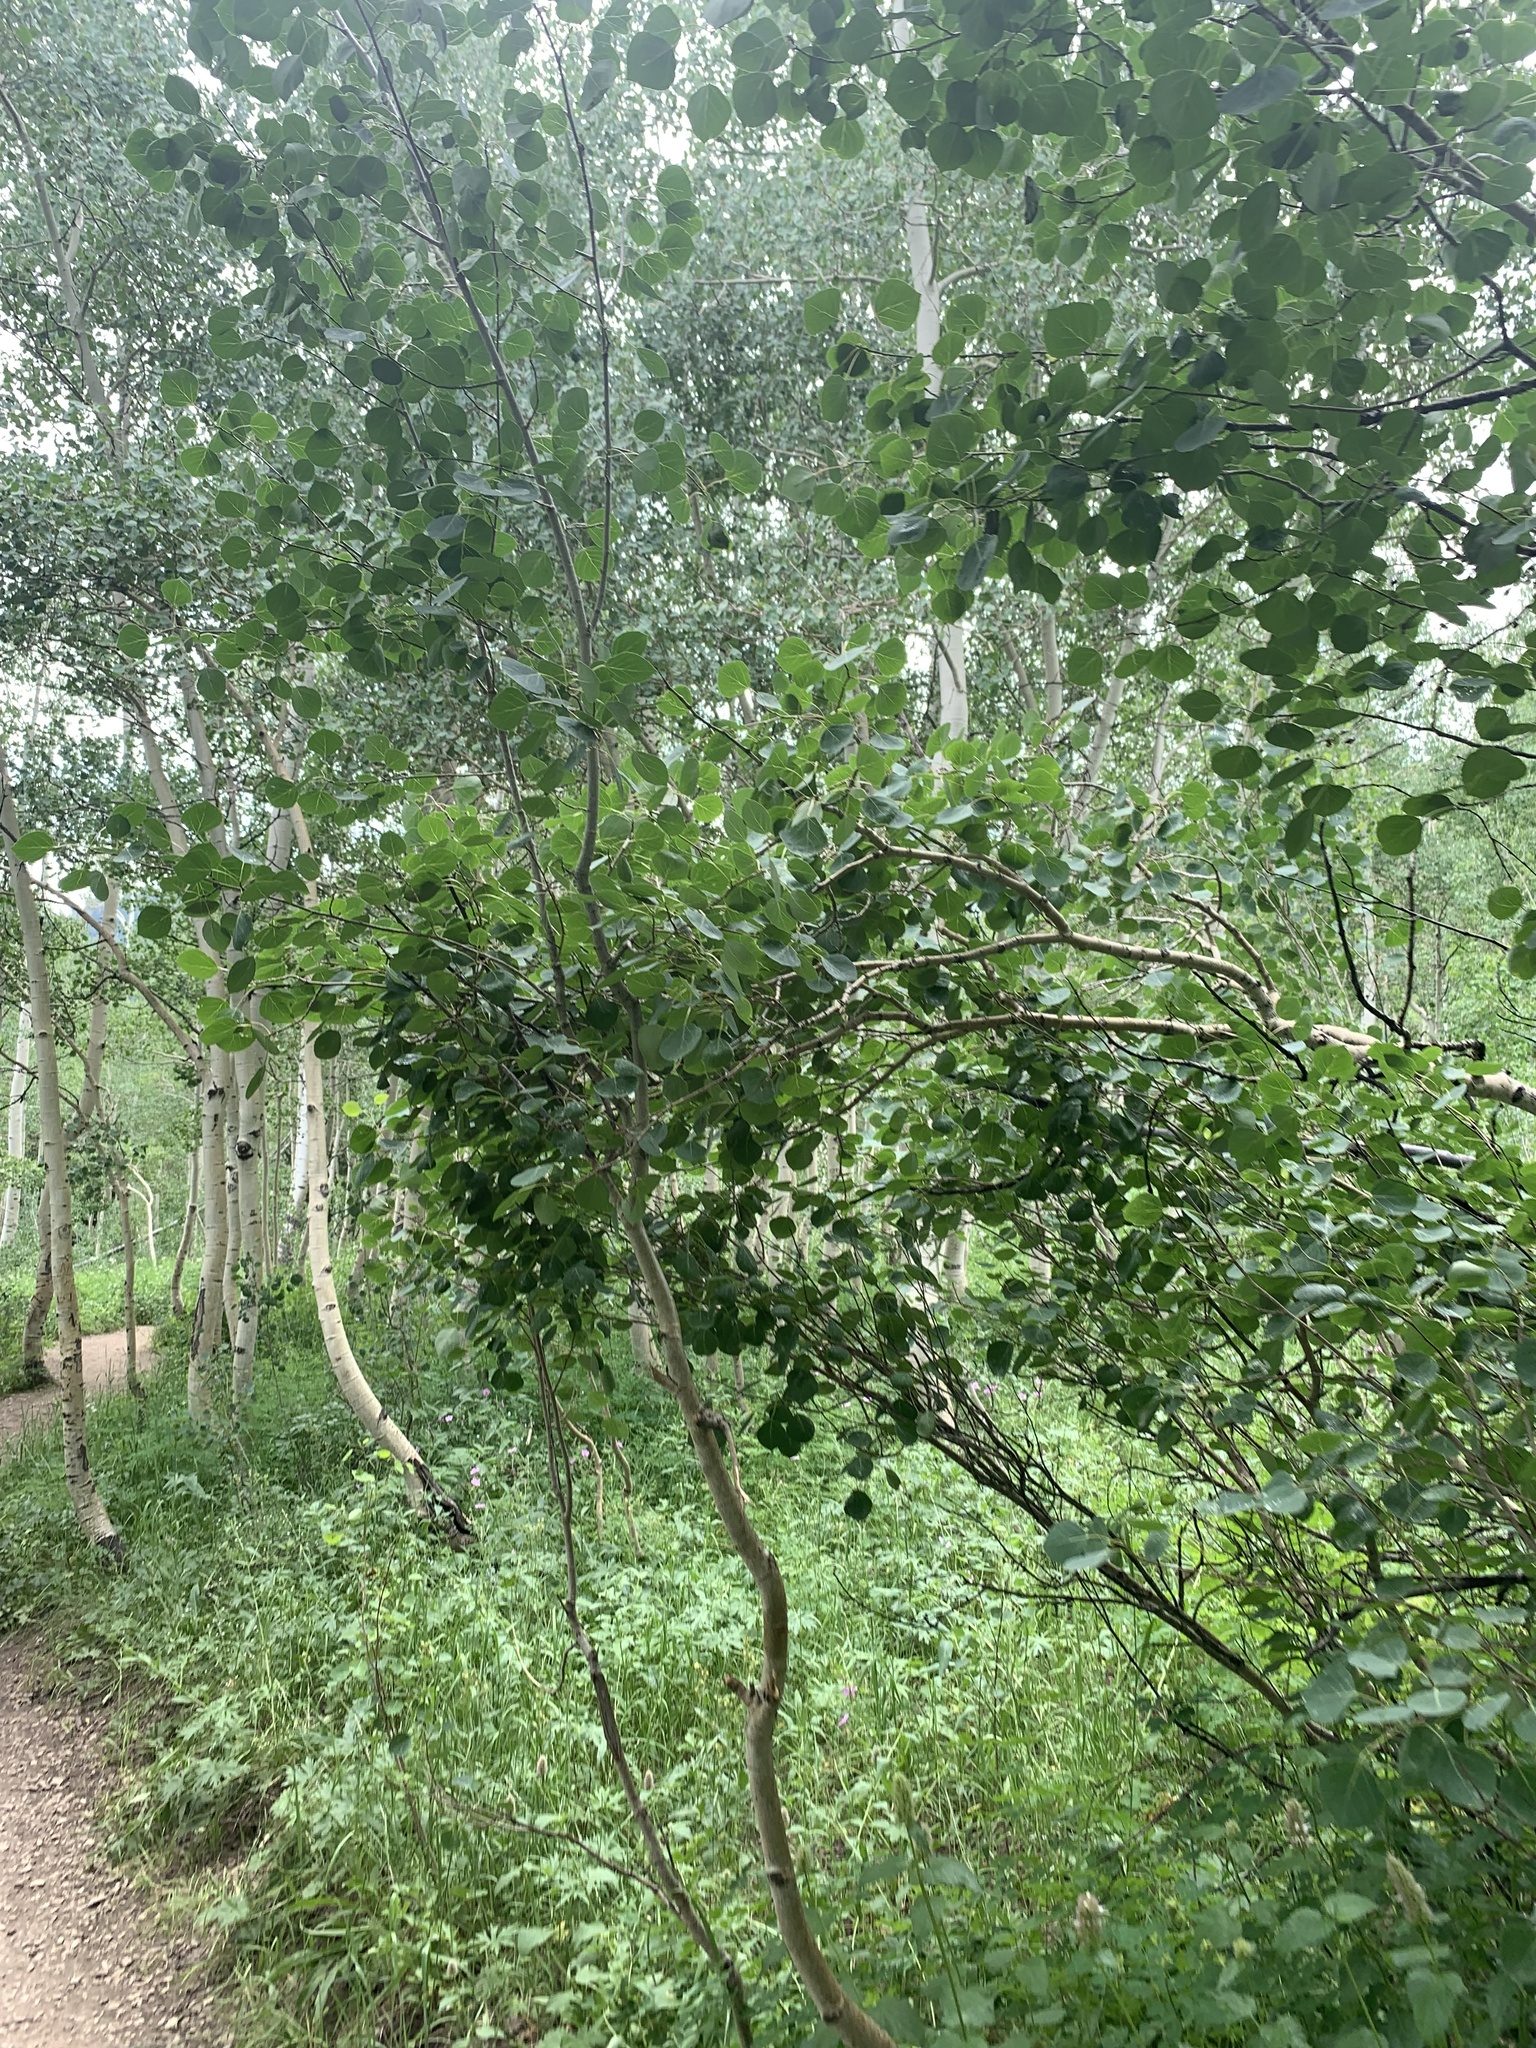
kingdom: Plantae
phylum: Tracheophyta
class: Magnoliopsida
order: Malpighiales
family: Salicaceae
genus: Populus
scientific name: Populus tremuloides
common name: Quaking aspen
